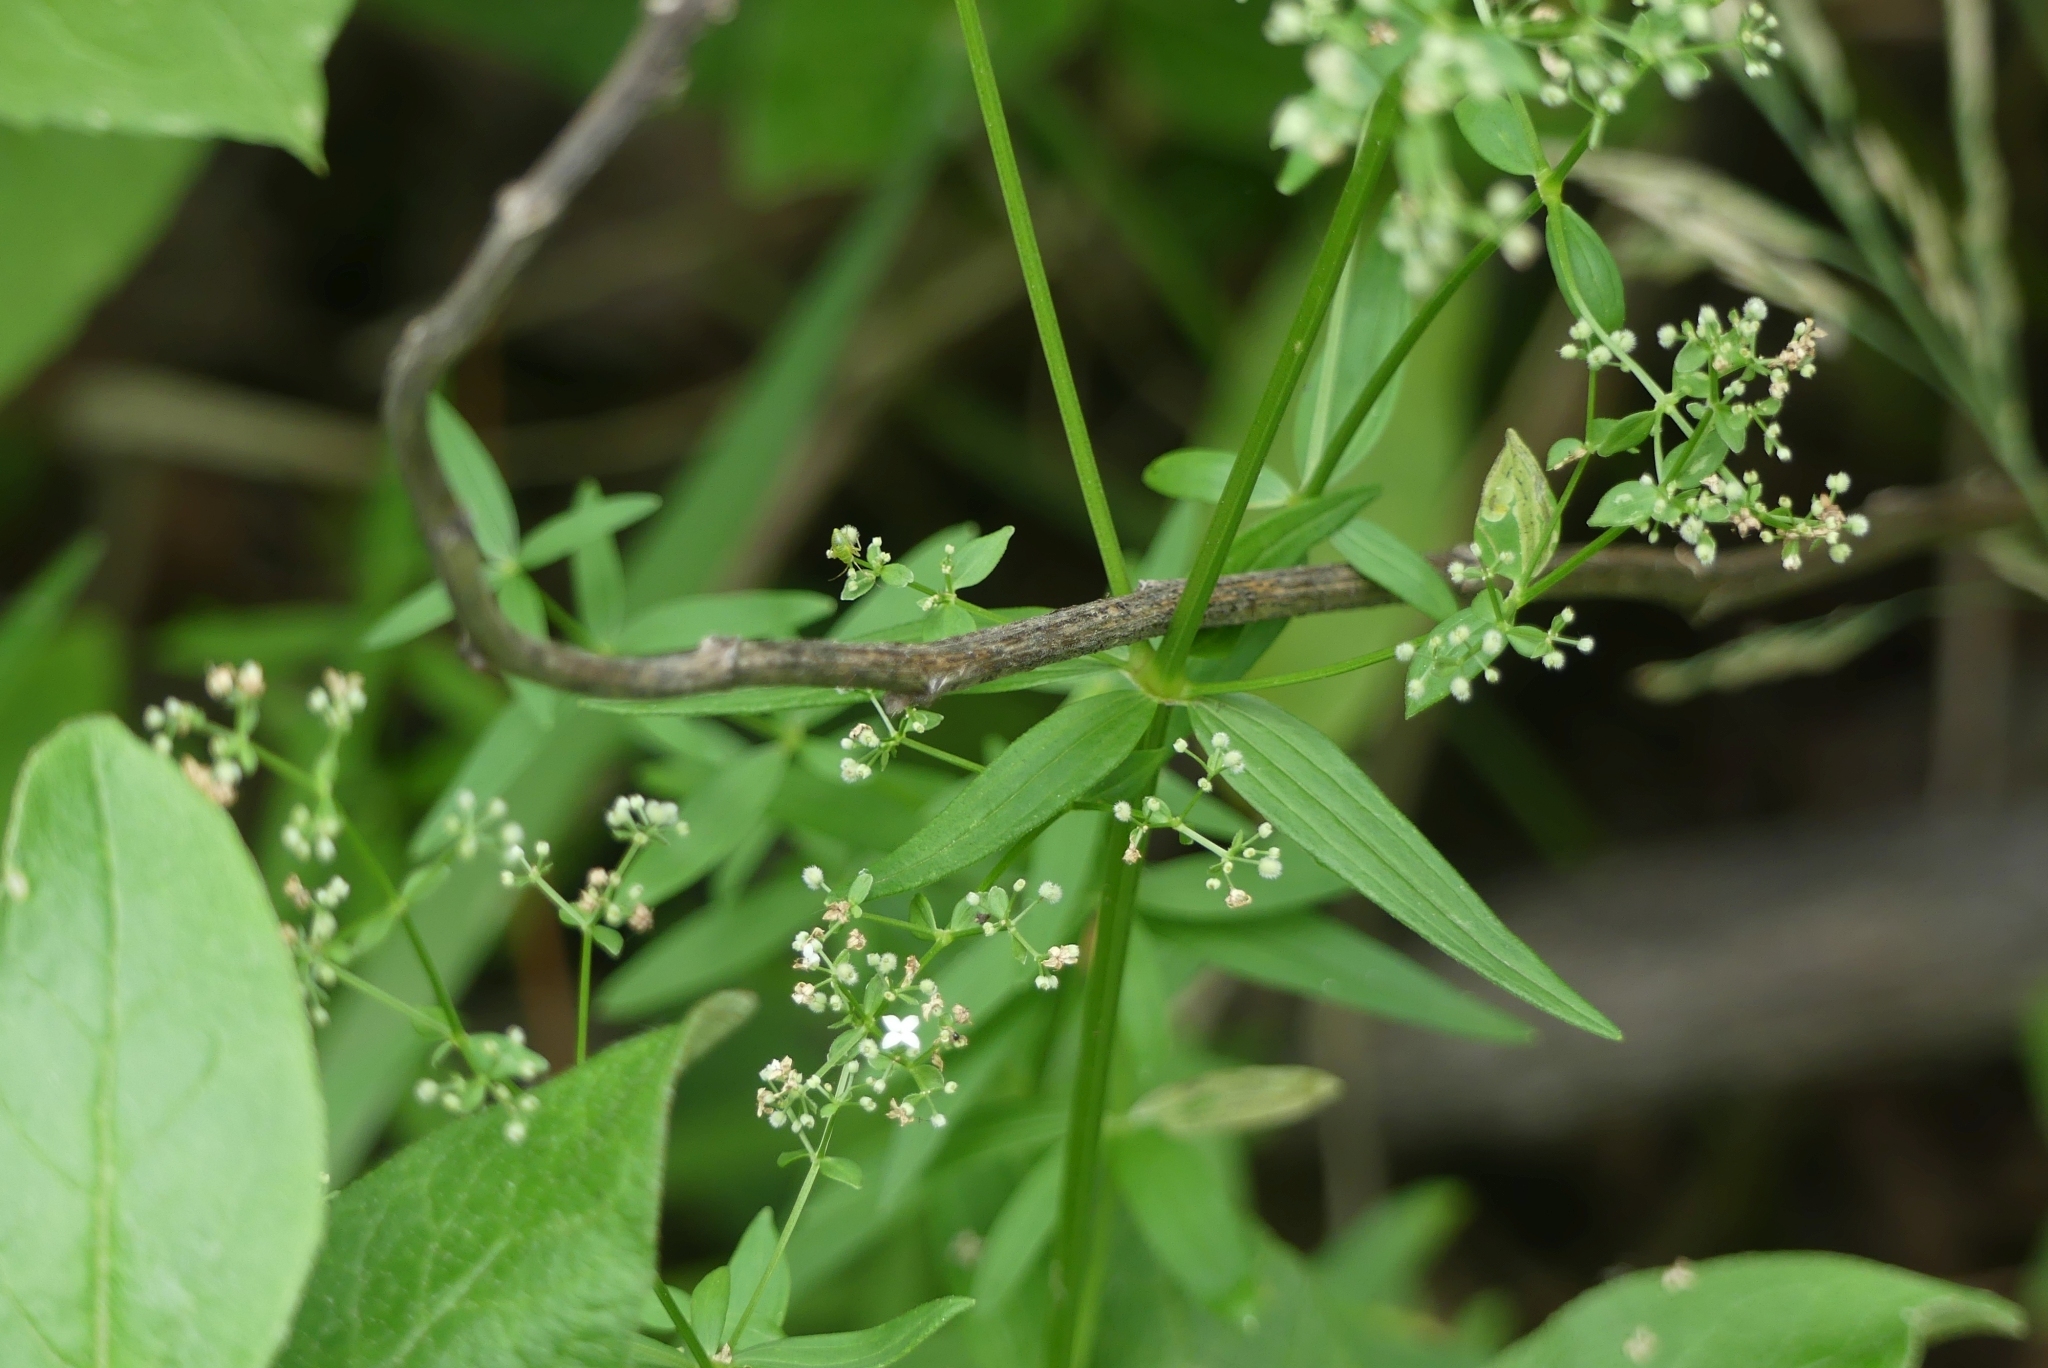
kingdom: Plantae
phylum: Tracheophyta
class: Magnoliopsida
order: Gentianales
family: Rubiaceae
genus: Galium
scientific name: Galium boreale
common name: Northern bedstraw
